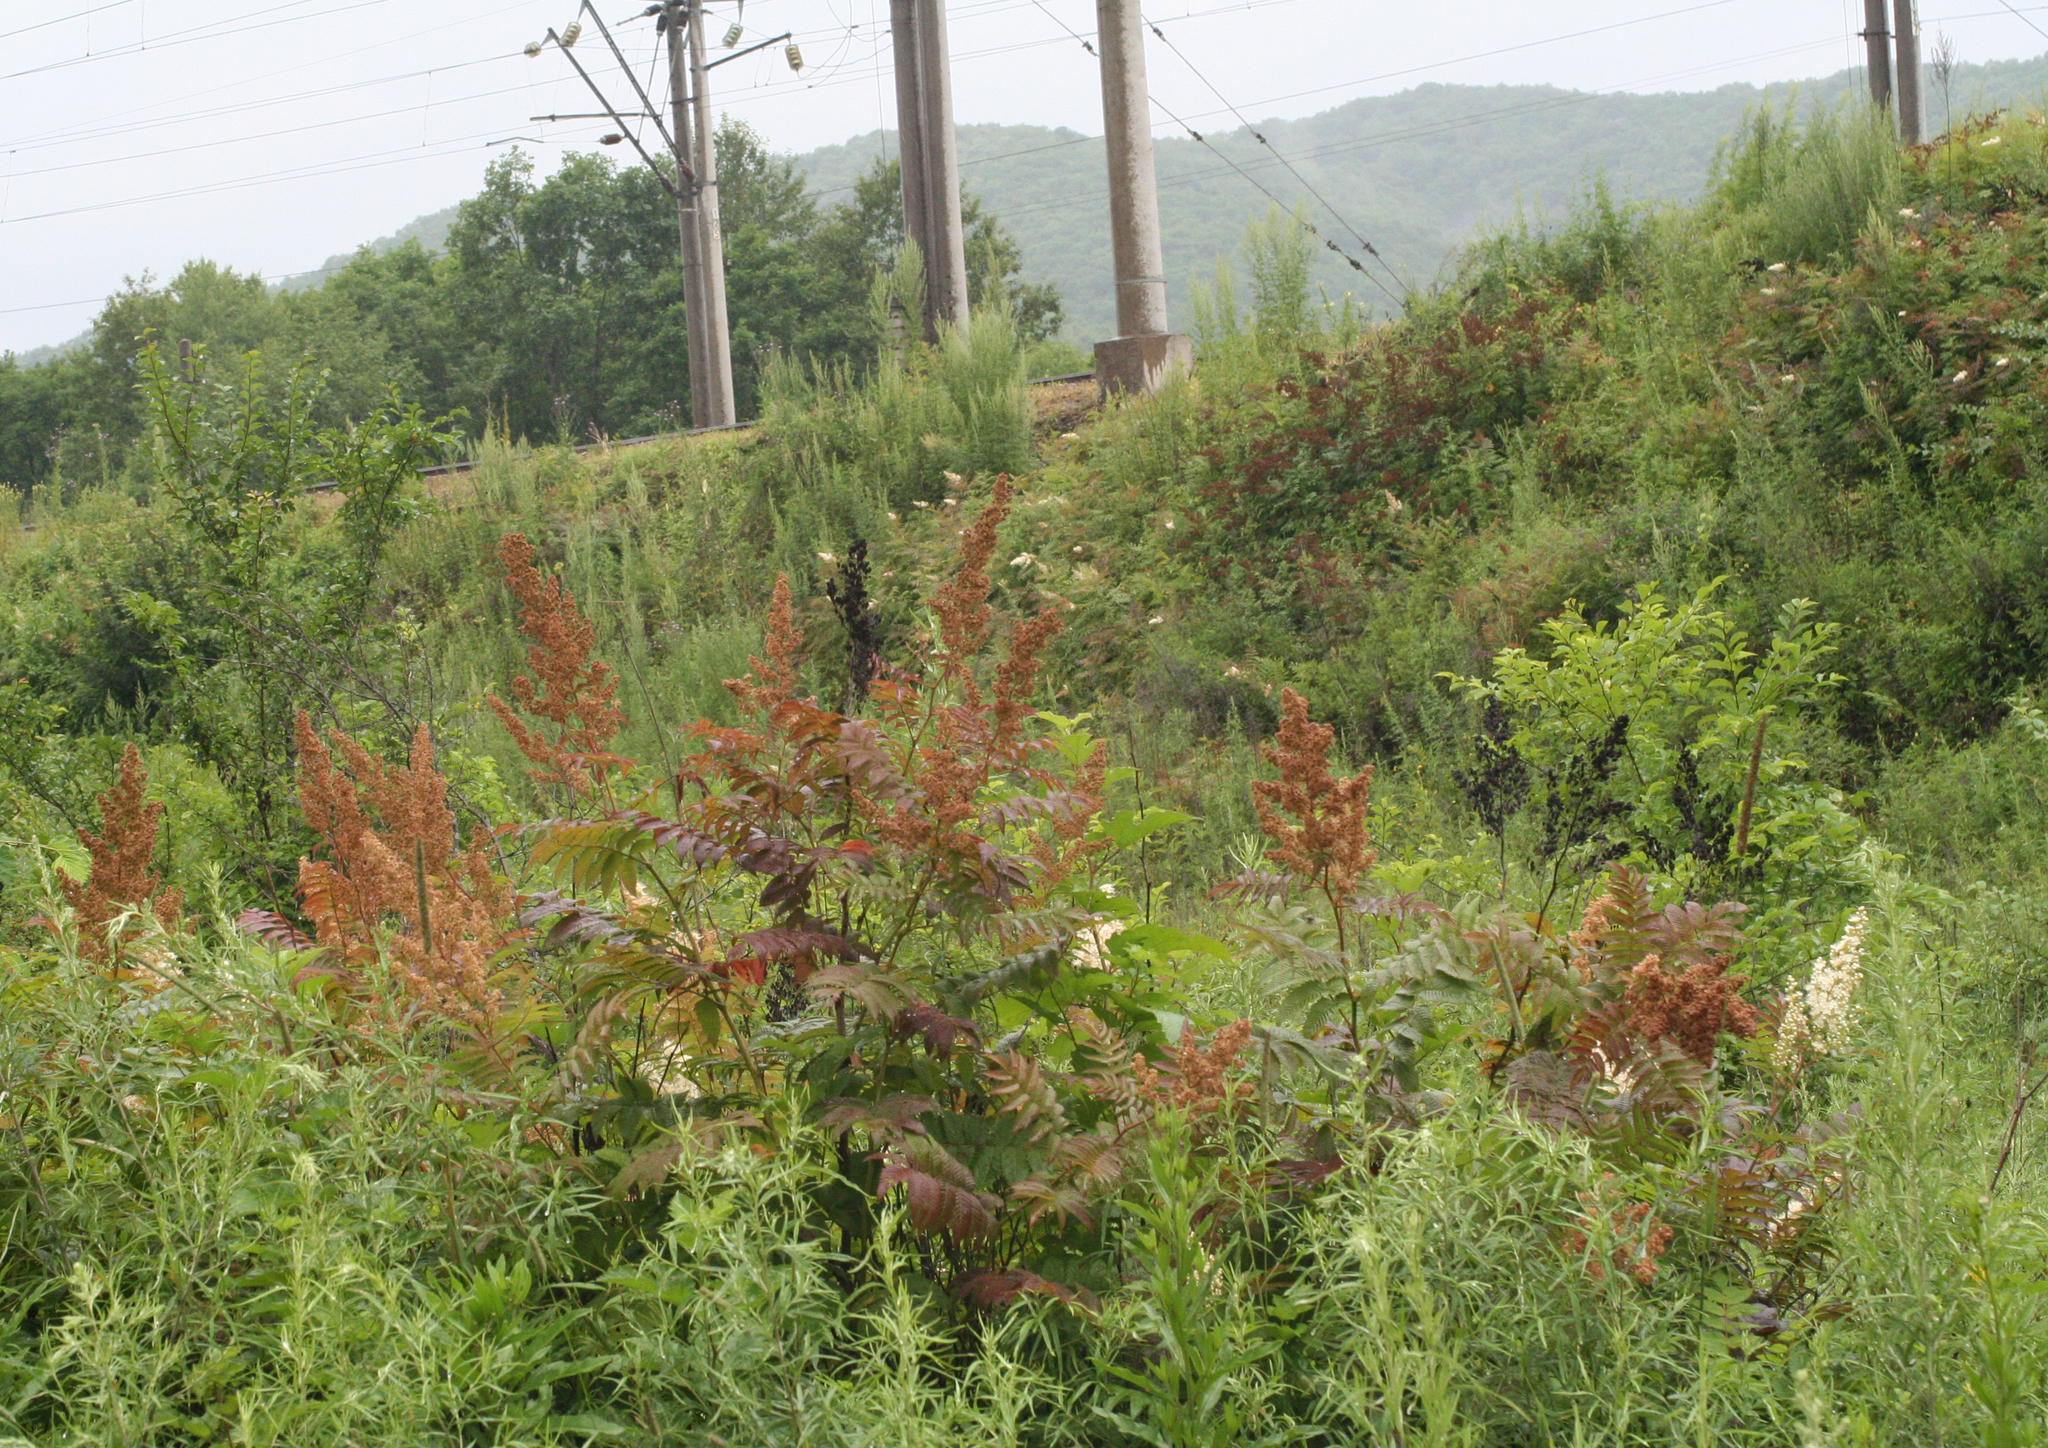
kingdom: Plantae
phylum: Tracheophyta
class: Magnoliopsida
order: Rosales
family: Rosaceae
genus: Sorbaria
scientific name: Sorbaria sorbifolia
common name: False spiraea
